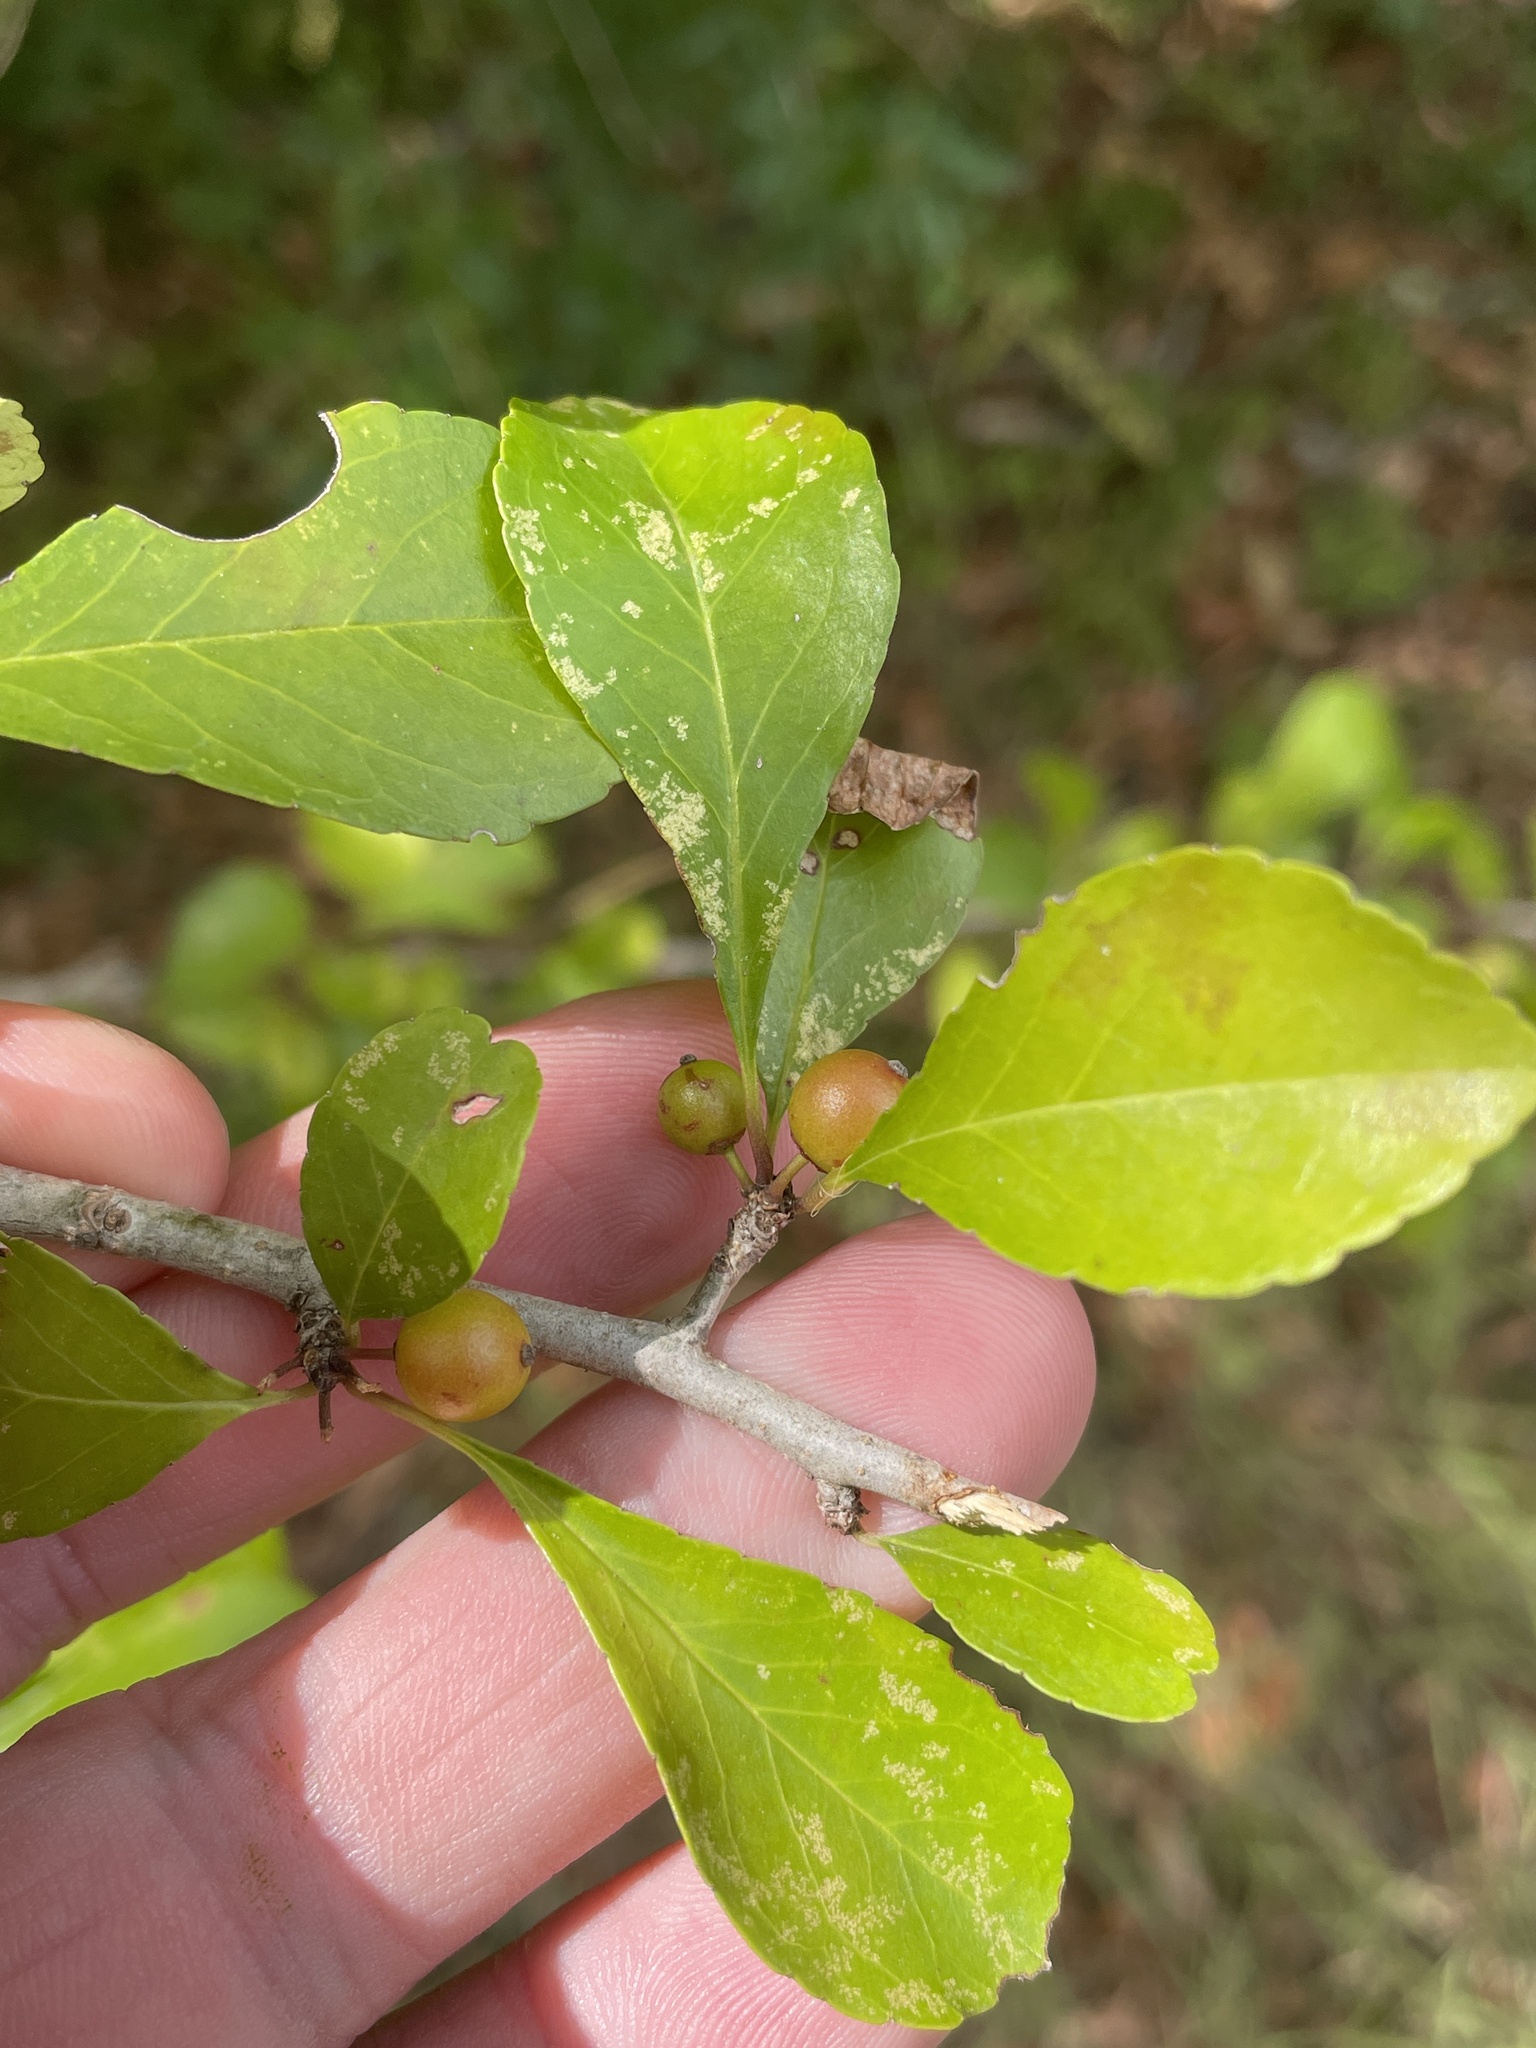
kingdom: Plantae
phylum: Tracheophyta
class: Magnoliopsida
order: Aquifoliales
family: Aquifoliaceae
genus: Ilex
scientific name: Ilex decidua
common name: Possum-haw
